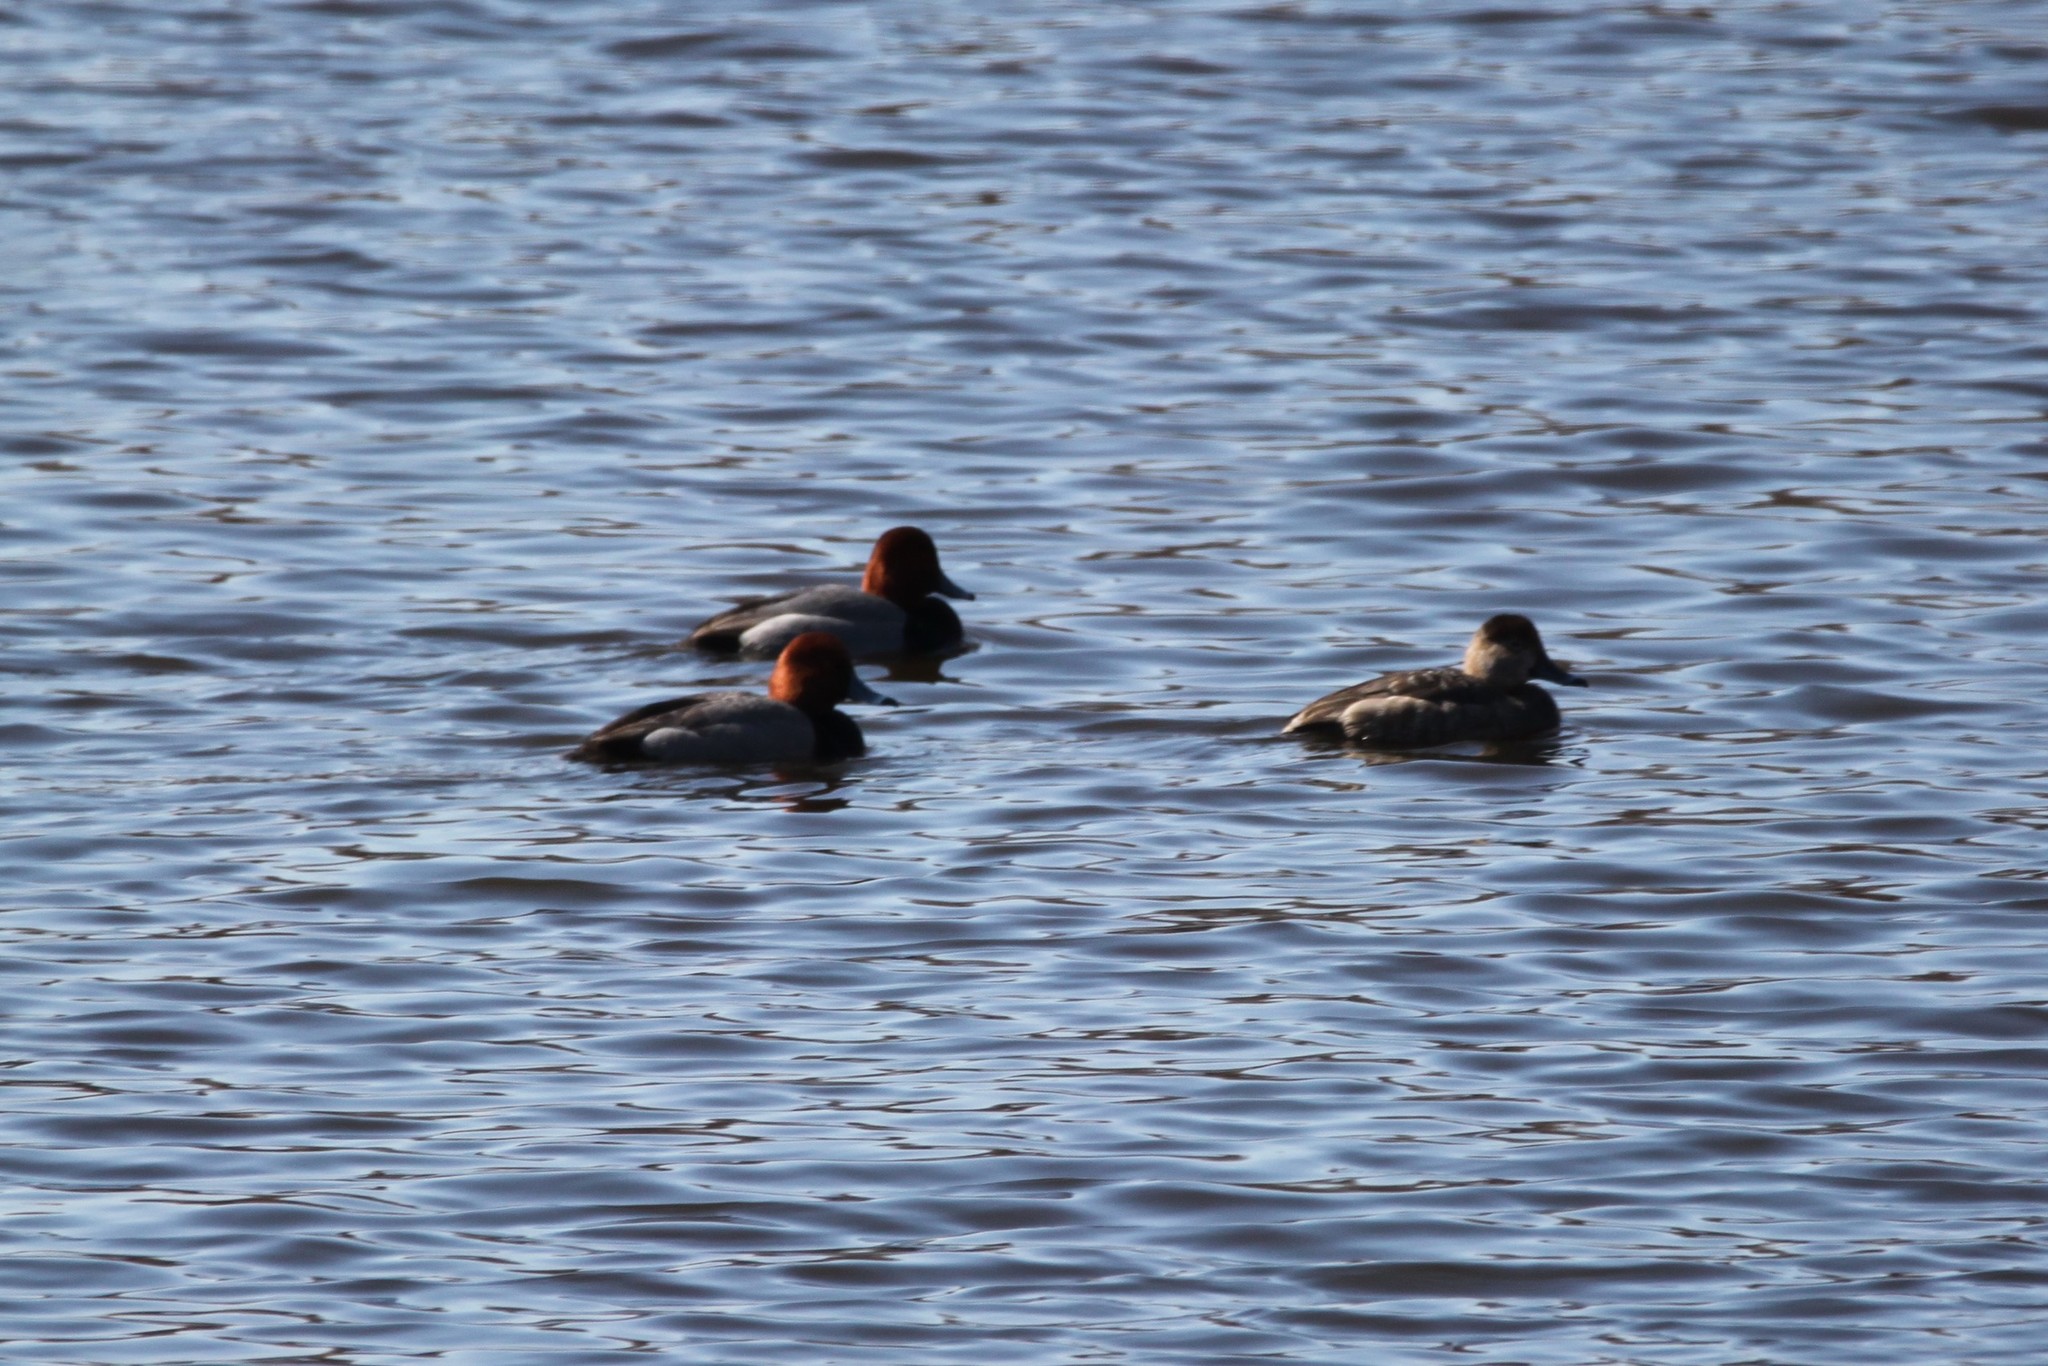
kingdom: Animalia
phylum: Chordata
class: Aves
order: Anseriformes
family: Anatidae
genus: Aythya
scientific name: Aythya americana
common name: Redhead
